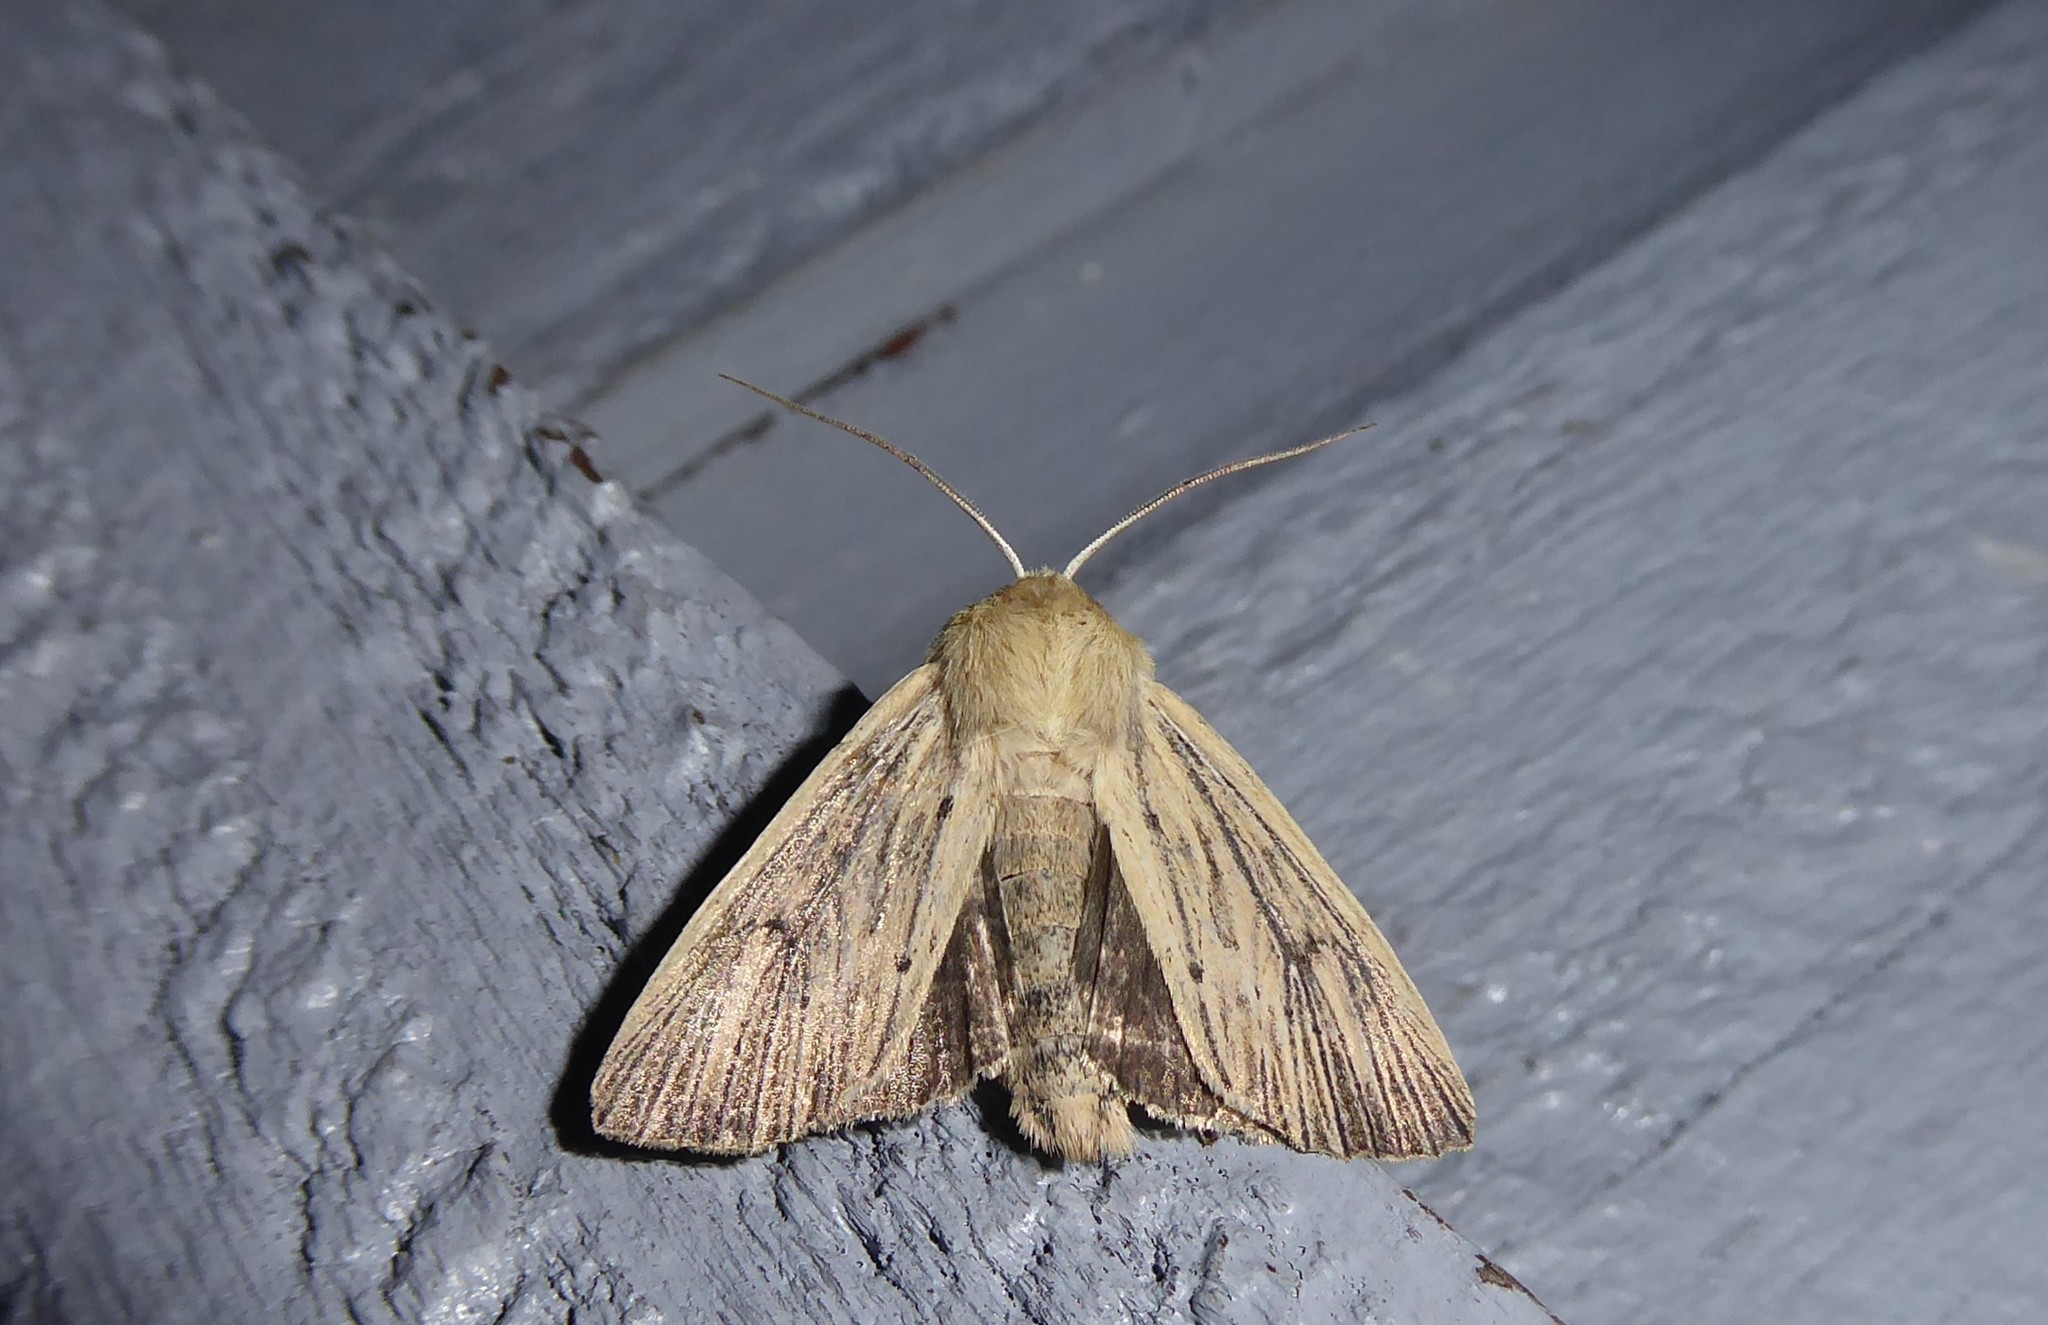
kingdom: Animalia
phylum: Arthropoda
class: Insecta
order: Lepidoptera
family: Noctuidae
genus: Ichneutica
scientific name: Ichneutica arotis
